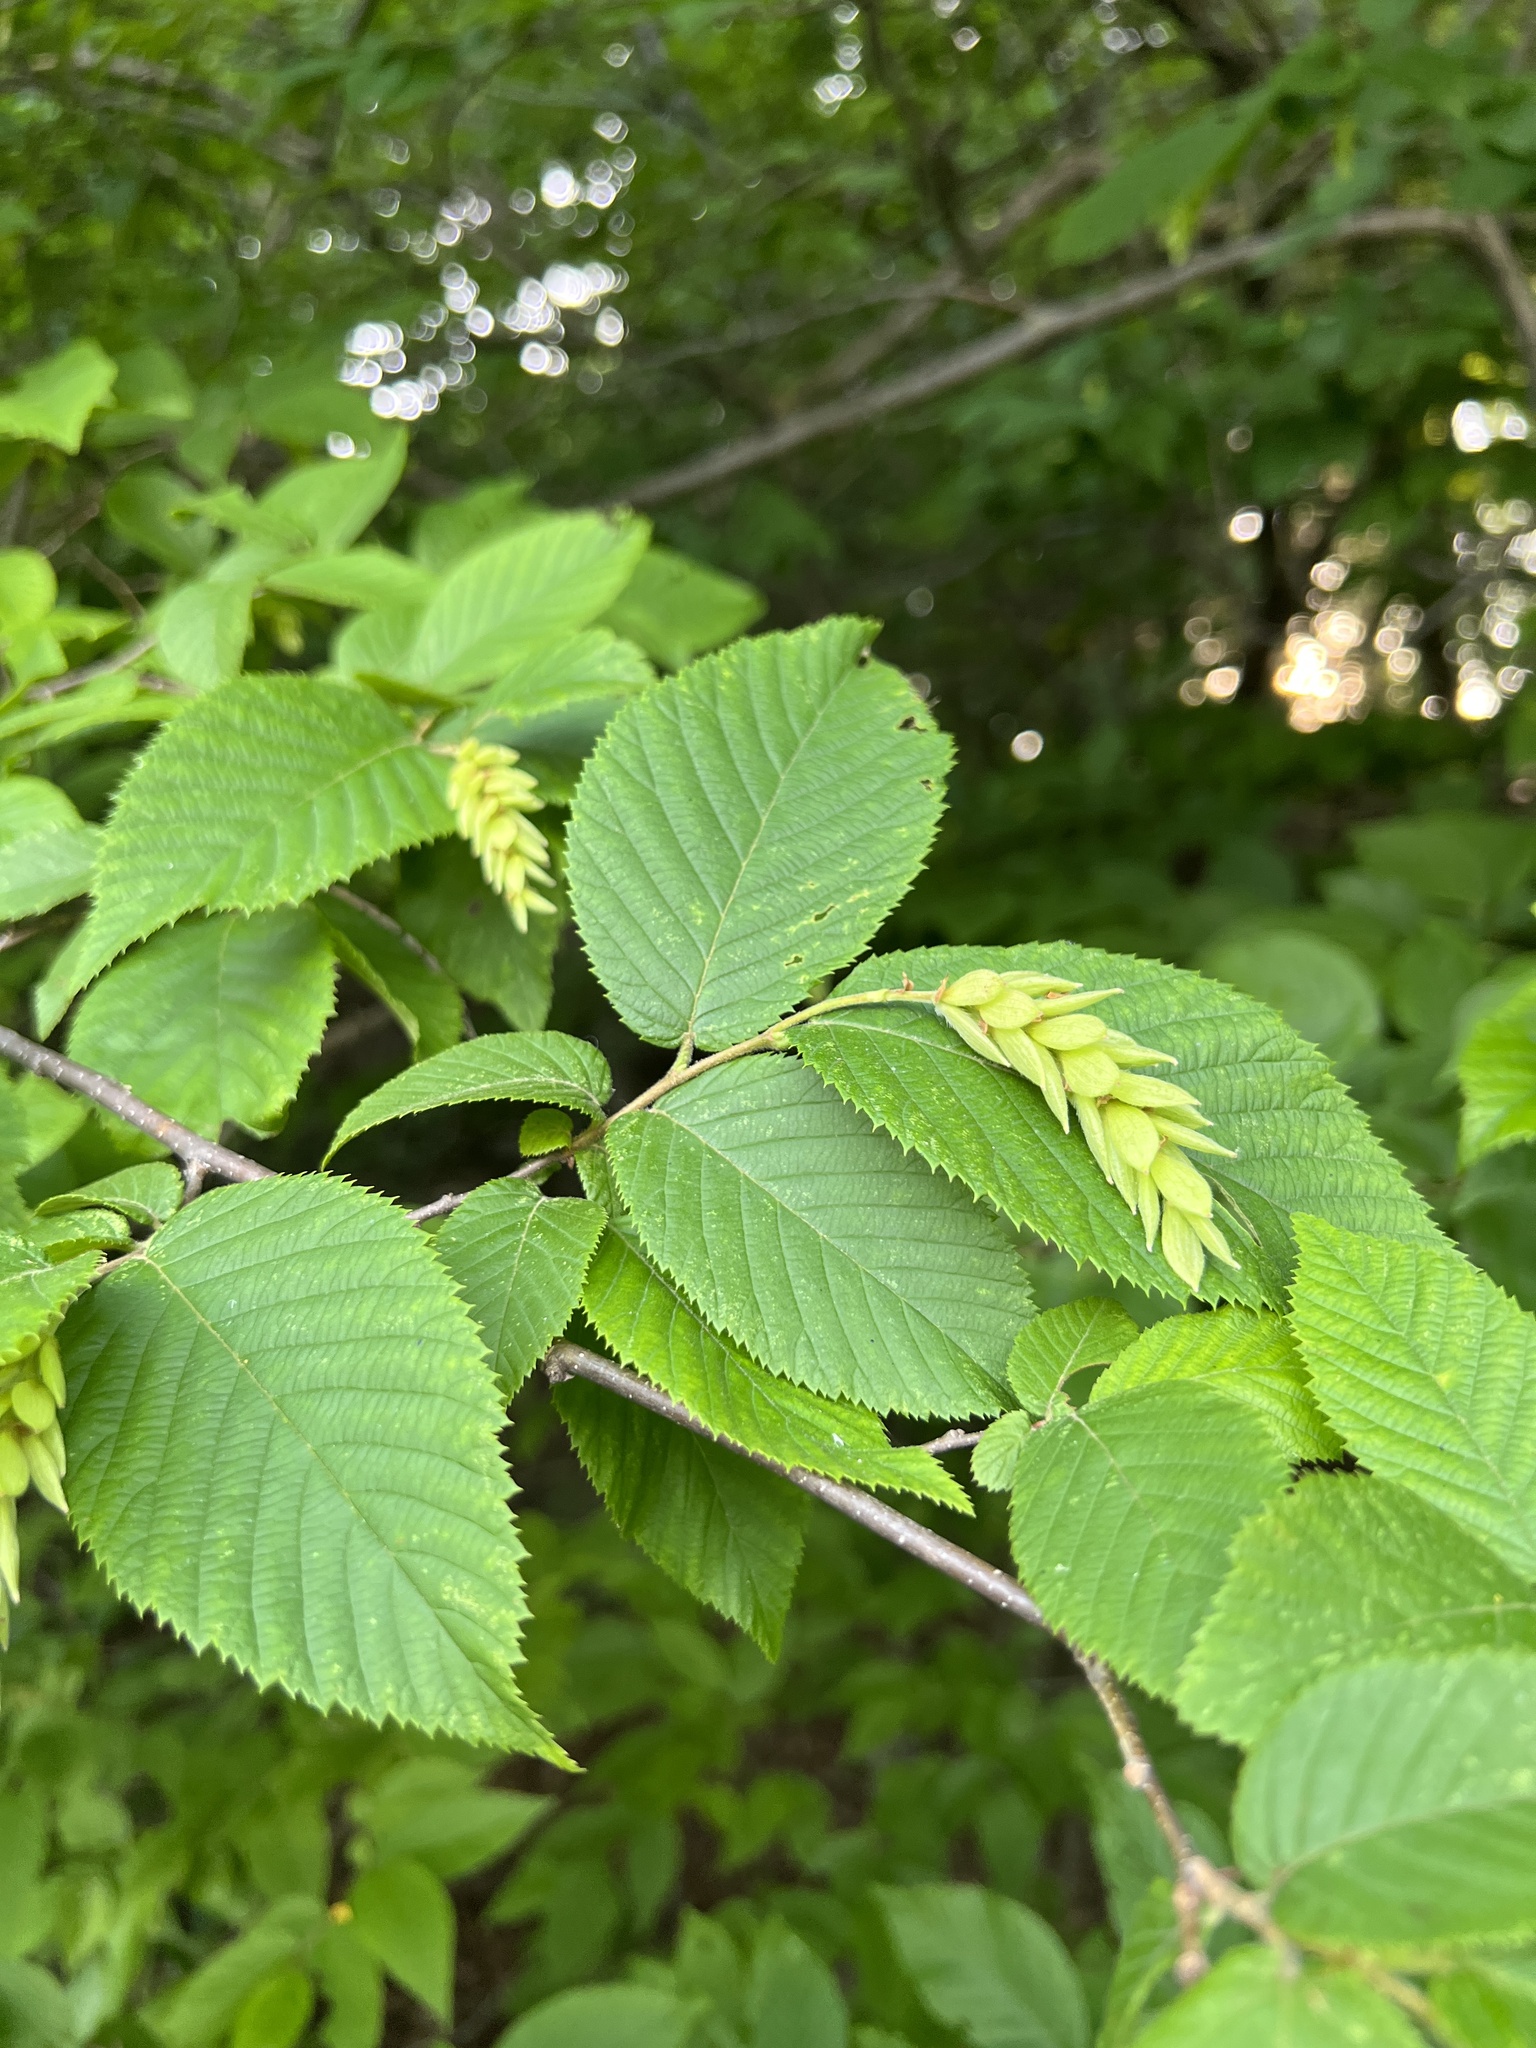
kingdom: Plantae
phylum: Tracheophyta
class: Magnoliopsida
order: Fagales
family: Betulaceae
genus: Ostrya
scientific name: Ostrya virginiana
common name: Ironwood
